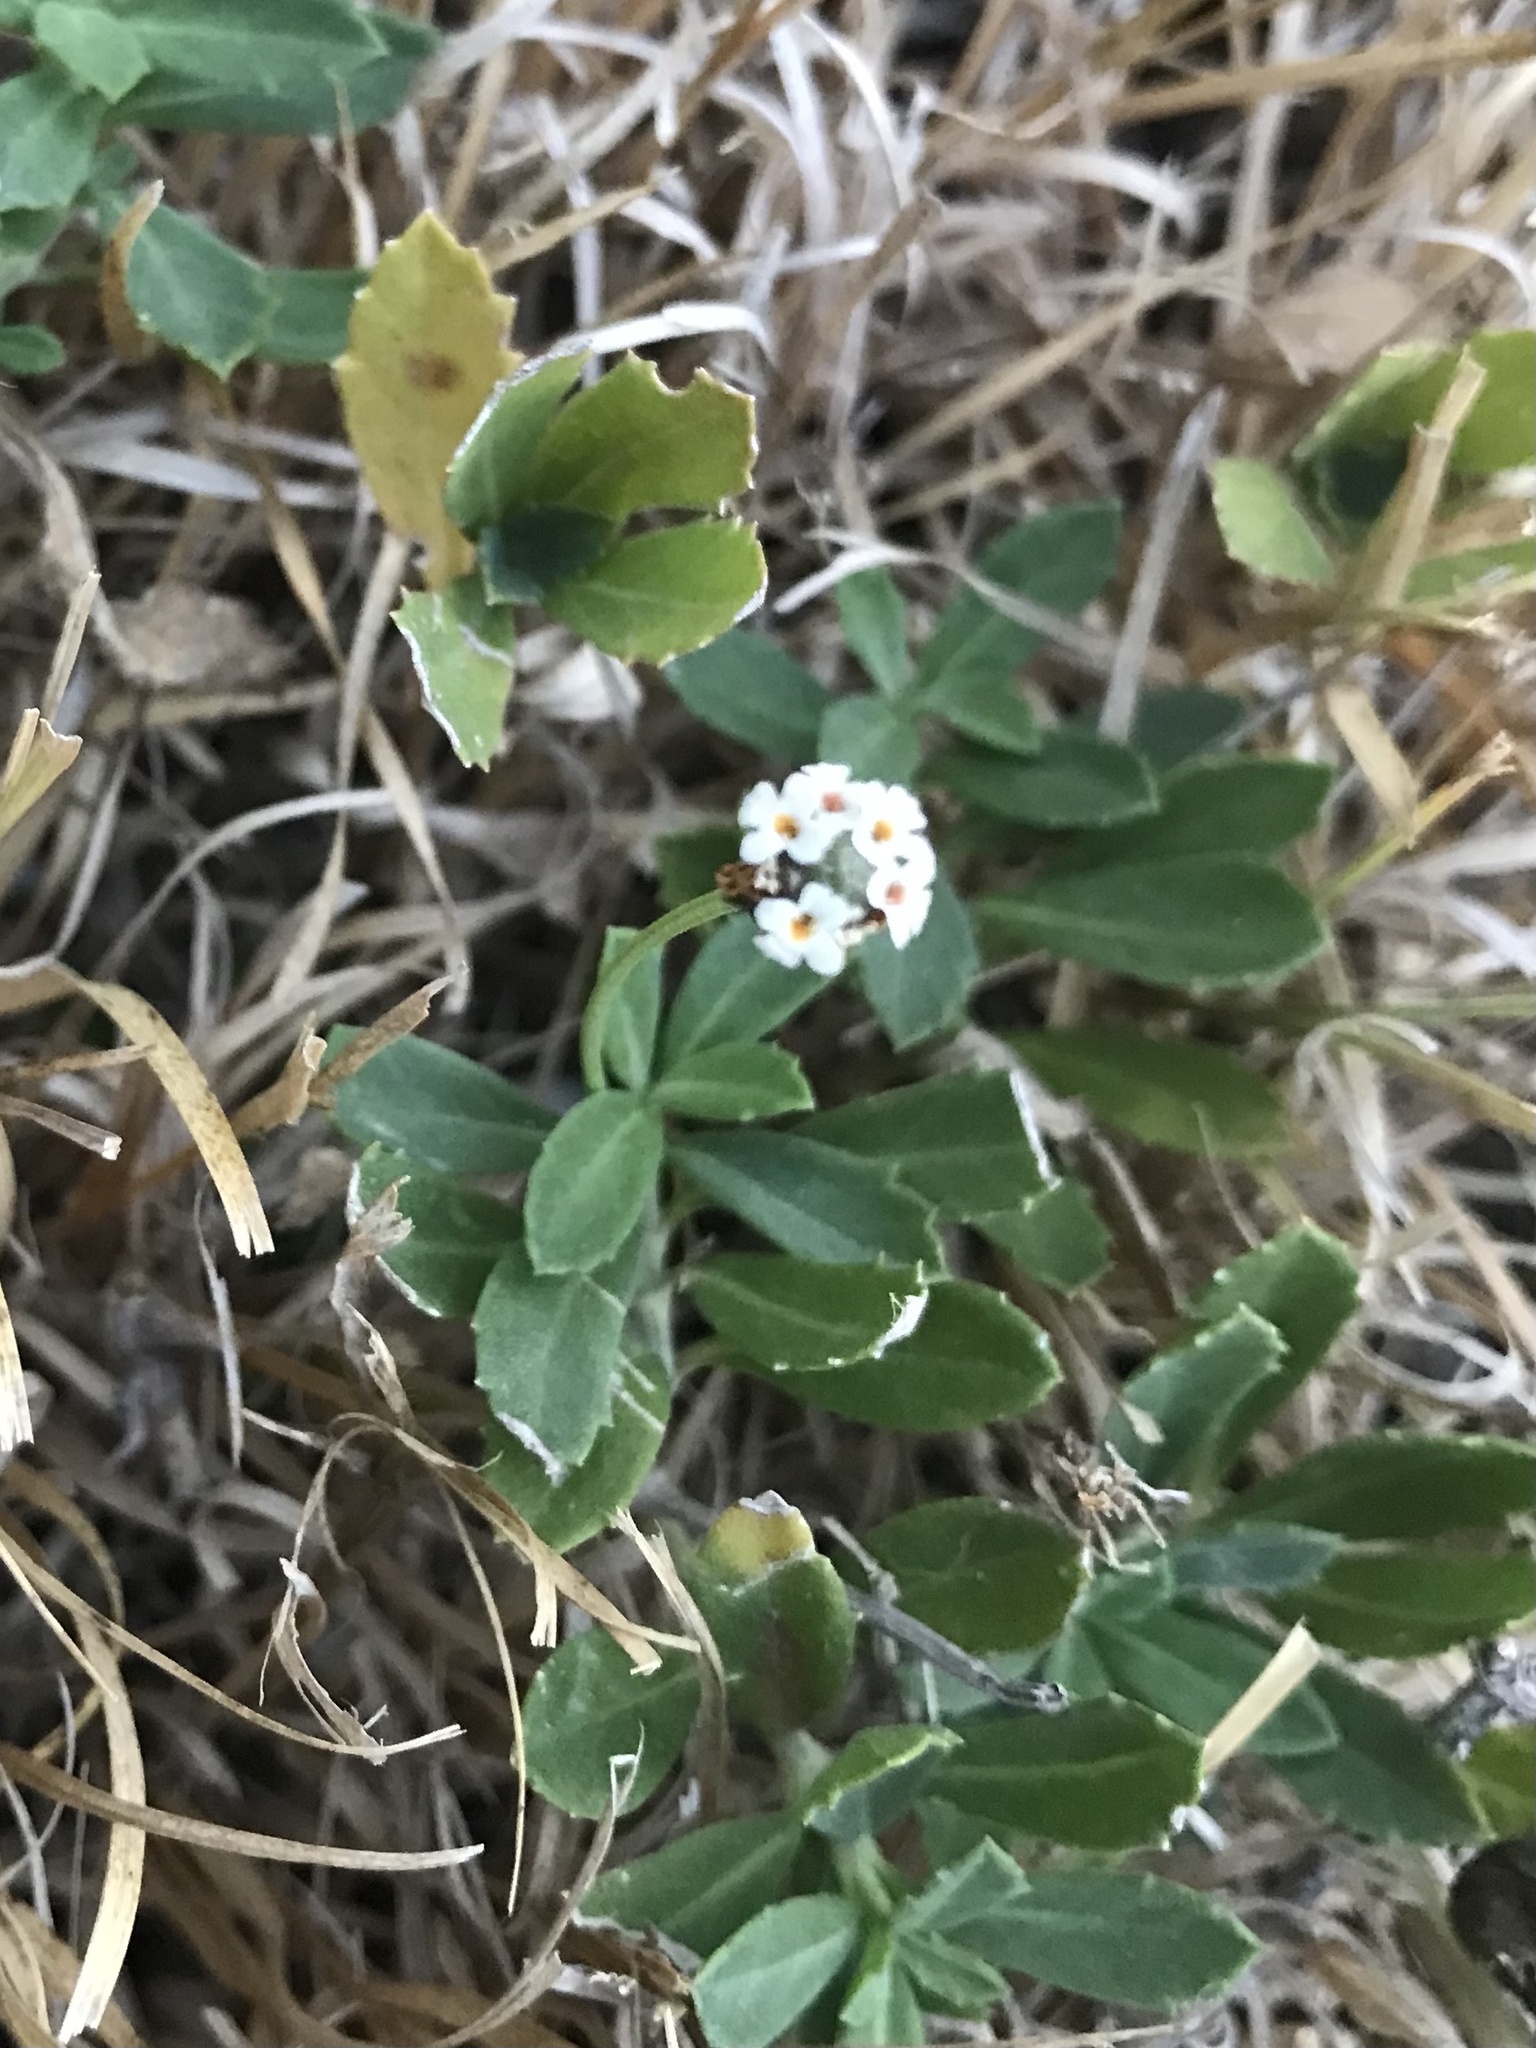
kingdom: Plantae
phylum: Tracheophyta
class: Magnoliopsida
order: Lamiales
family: Verbenaceae
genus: Phyla
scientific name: Phyla nodiflora
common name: Frogfruit
